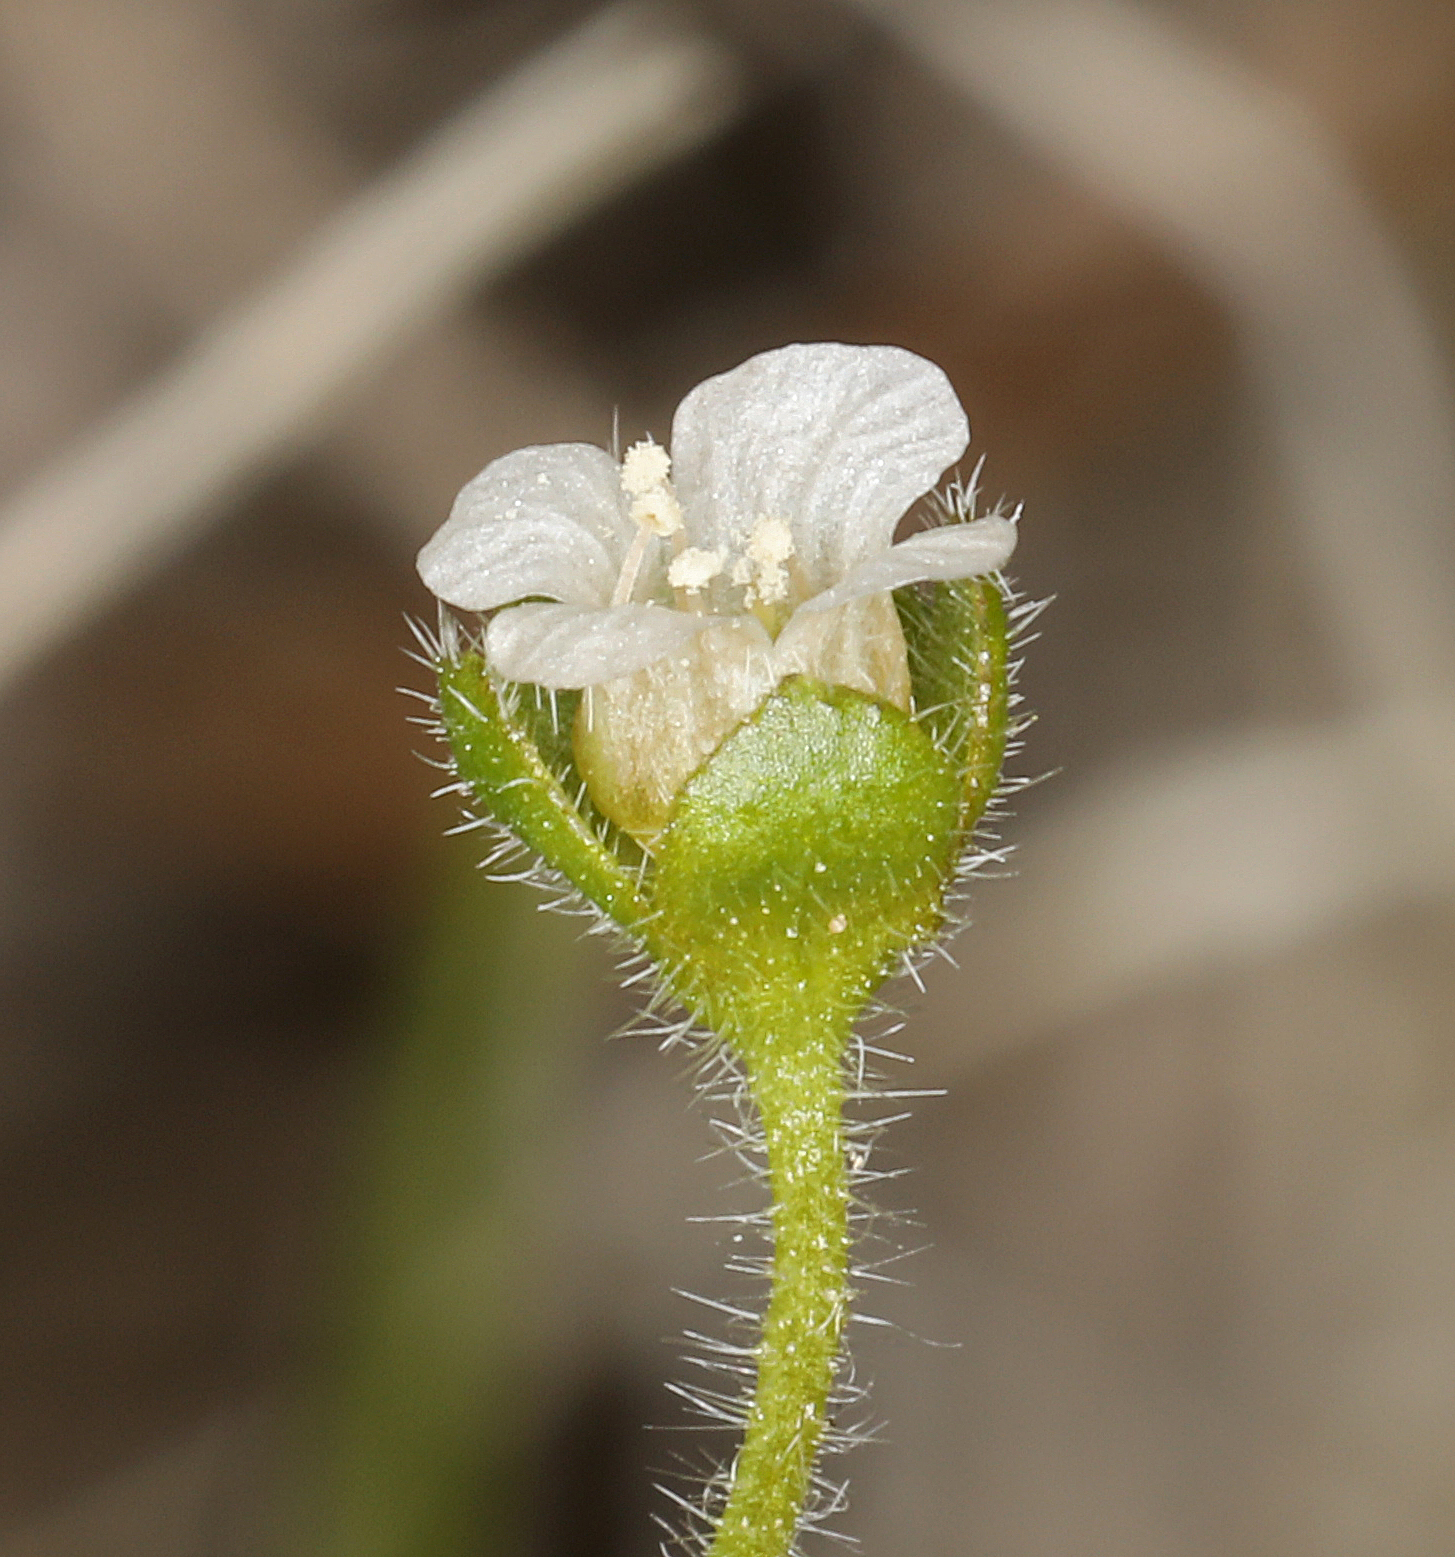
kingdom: Plantae
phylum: Tracheophyta
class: Magnoliopsida
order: Boraginales
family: Hydrophyllaceae
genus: Eucrypta
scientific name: Eucrypta chrysanthemifolia
